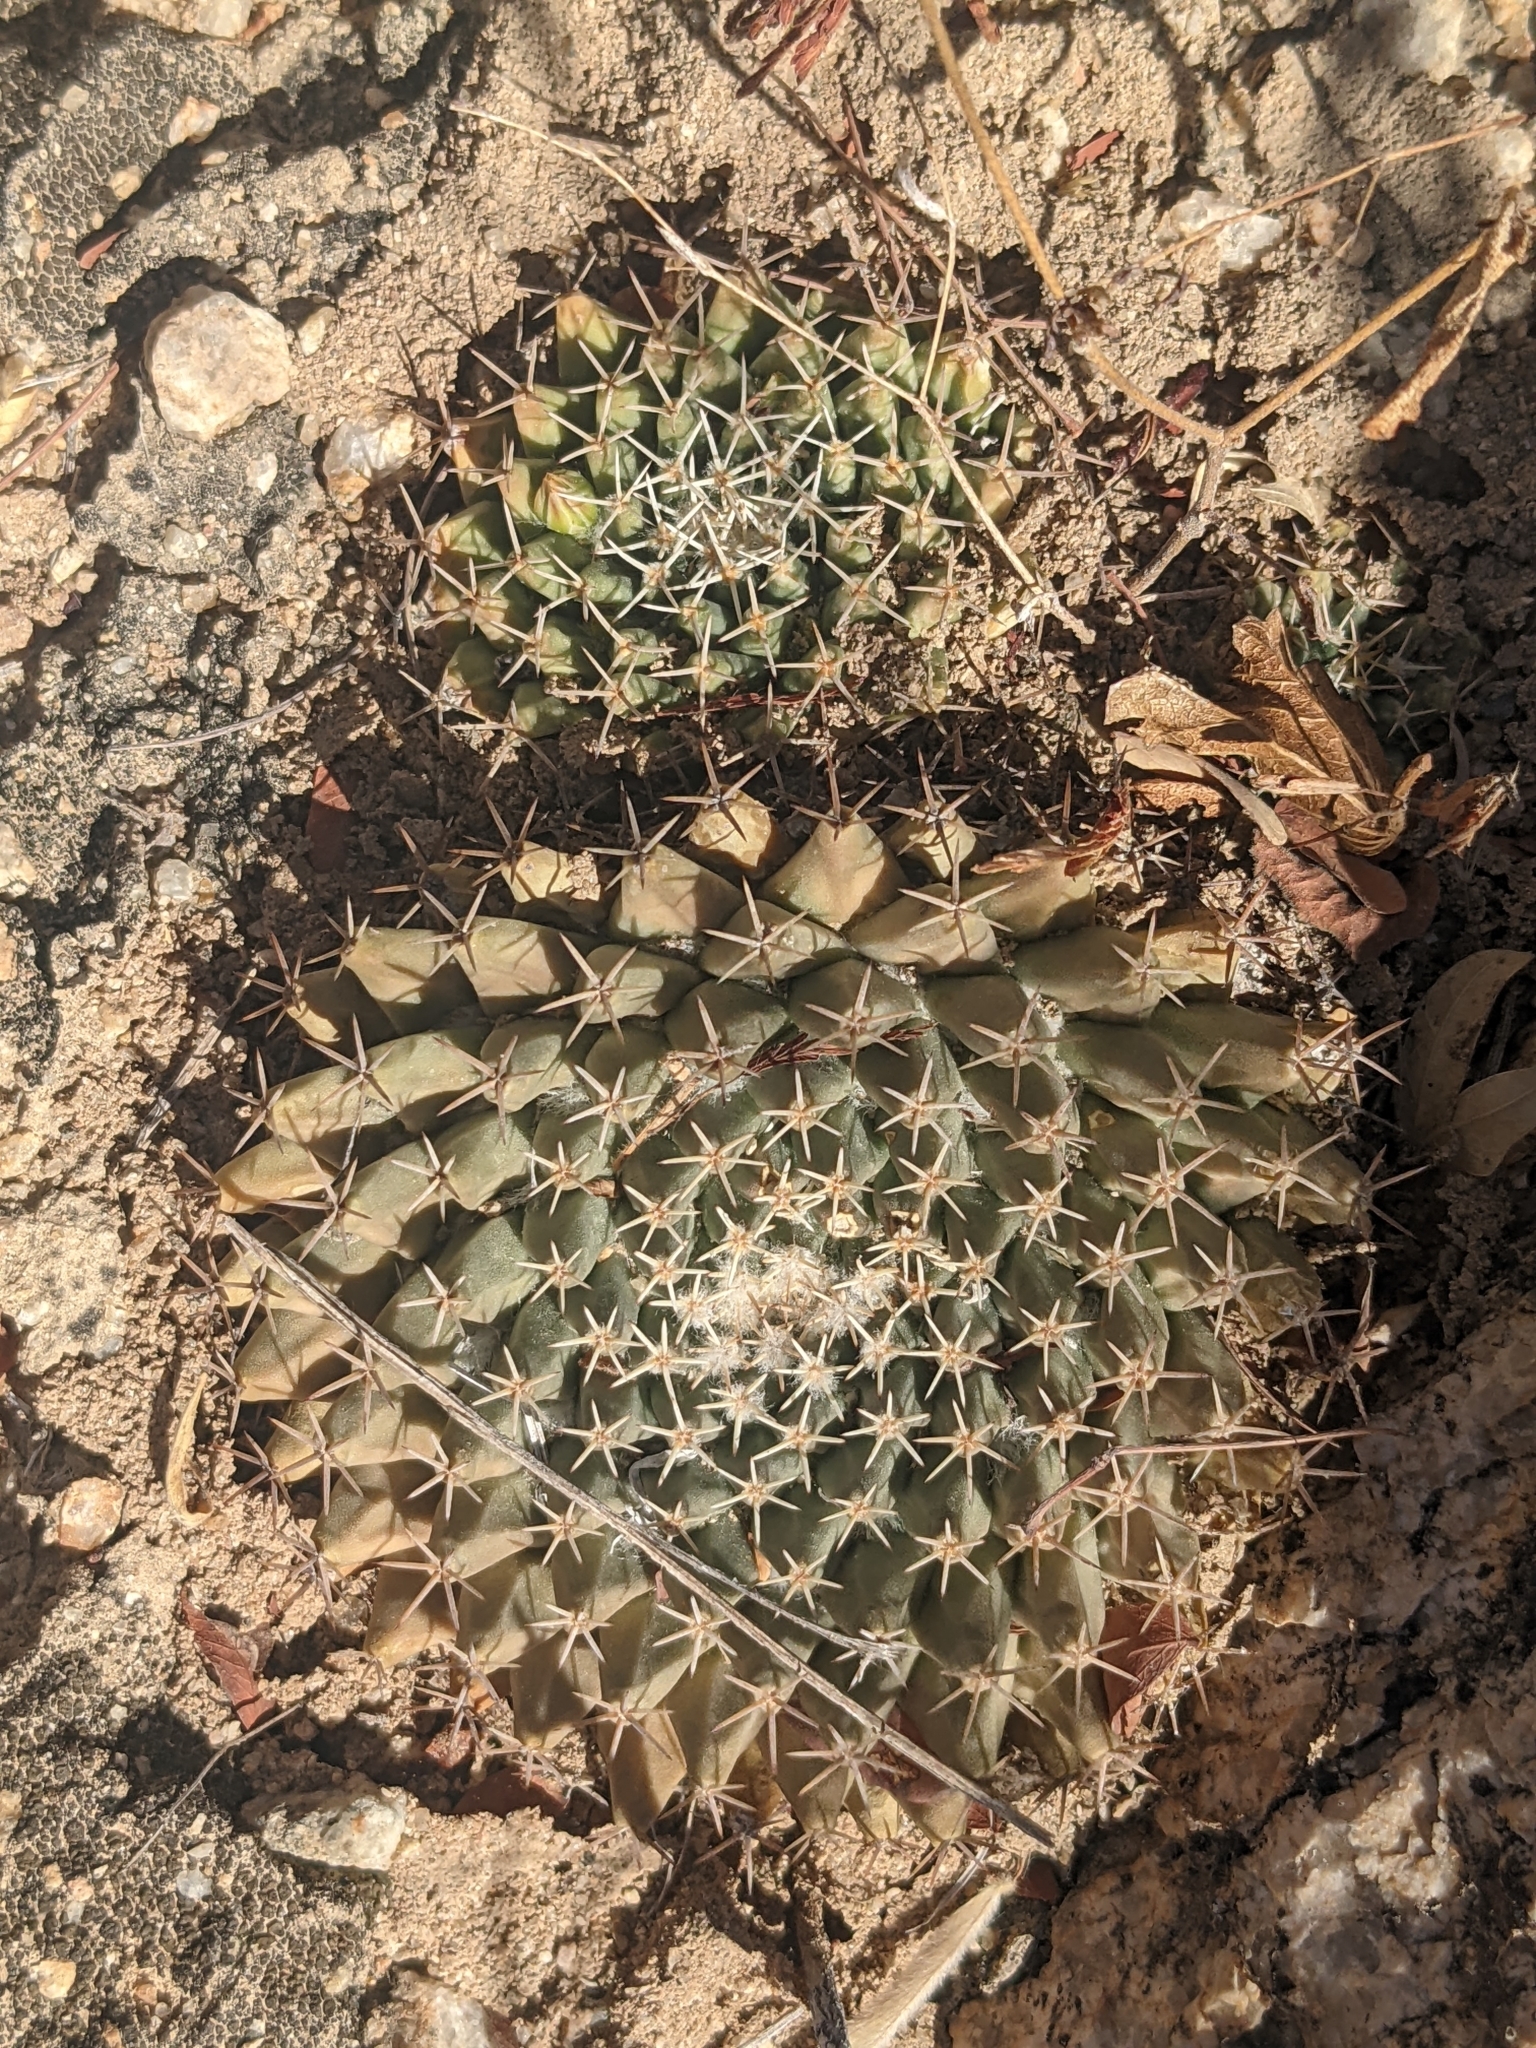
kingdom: Plantae
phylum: Tracheophyta
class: Magnoliopsida
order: Caryophyllales
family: Cactaceae
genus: Mammillaria
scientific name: Mammillaria peninsularis
